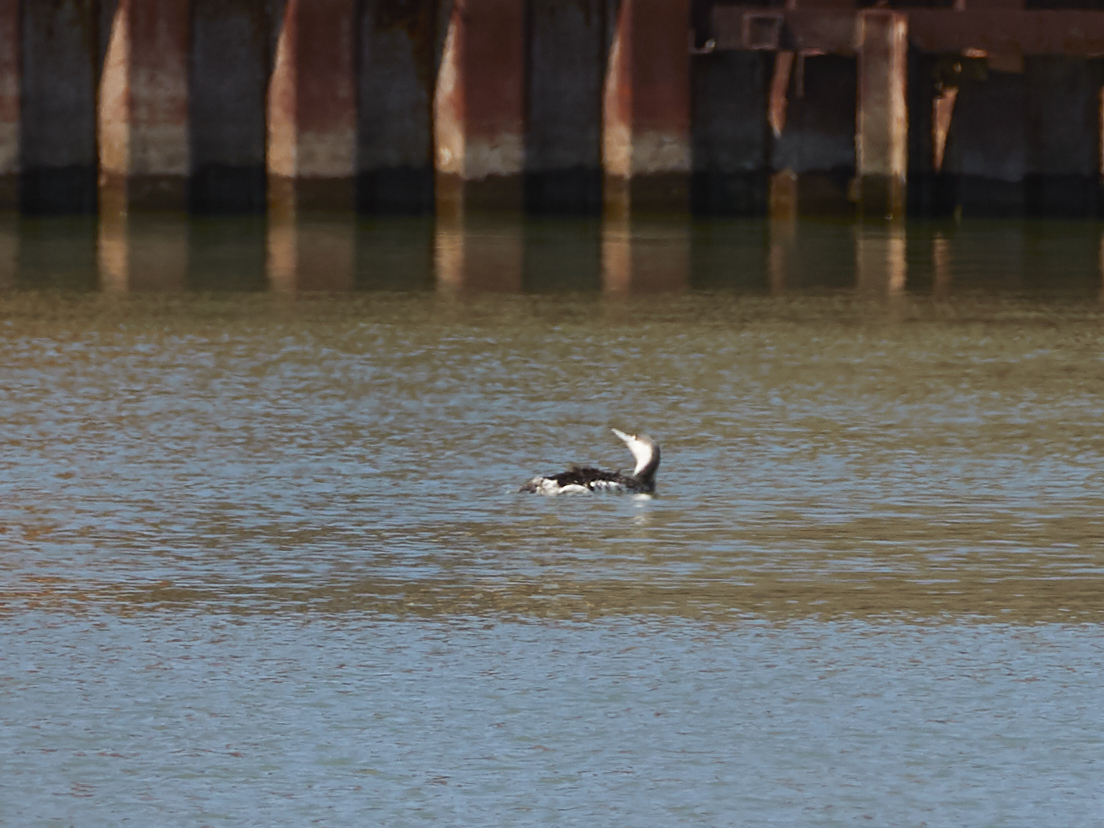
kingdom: Animalia
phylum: Chordata
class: Aves
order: Gaviiformes
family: Gaviidae
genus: Gavia
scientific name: Gavia stellata
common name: Red-throated loon
